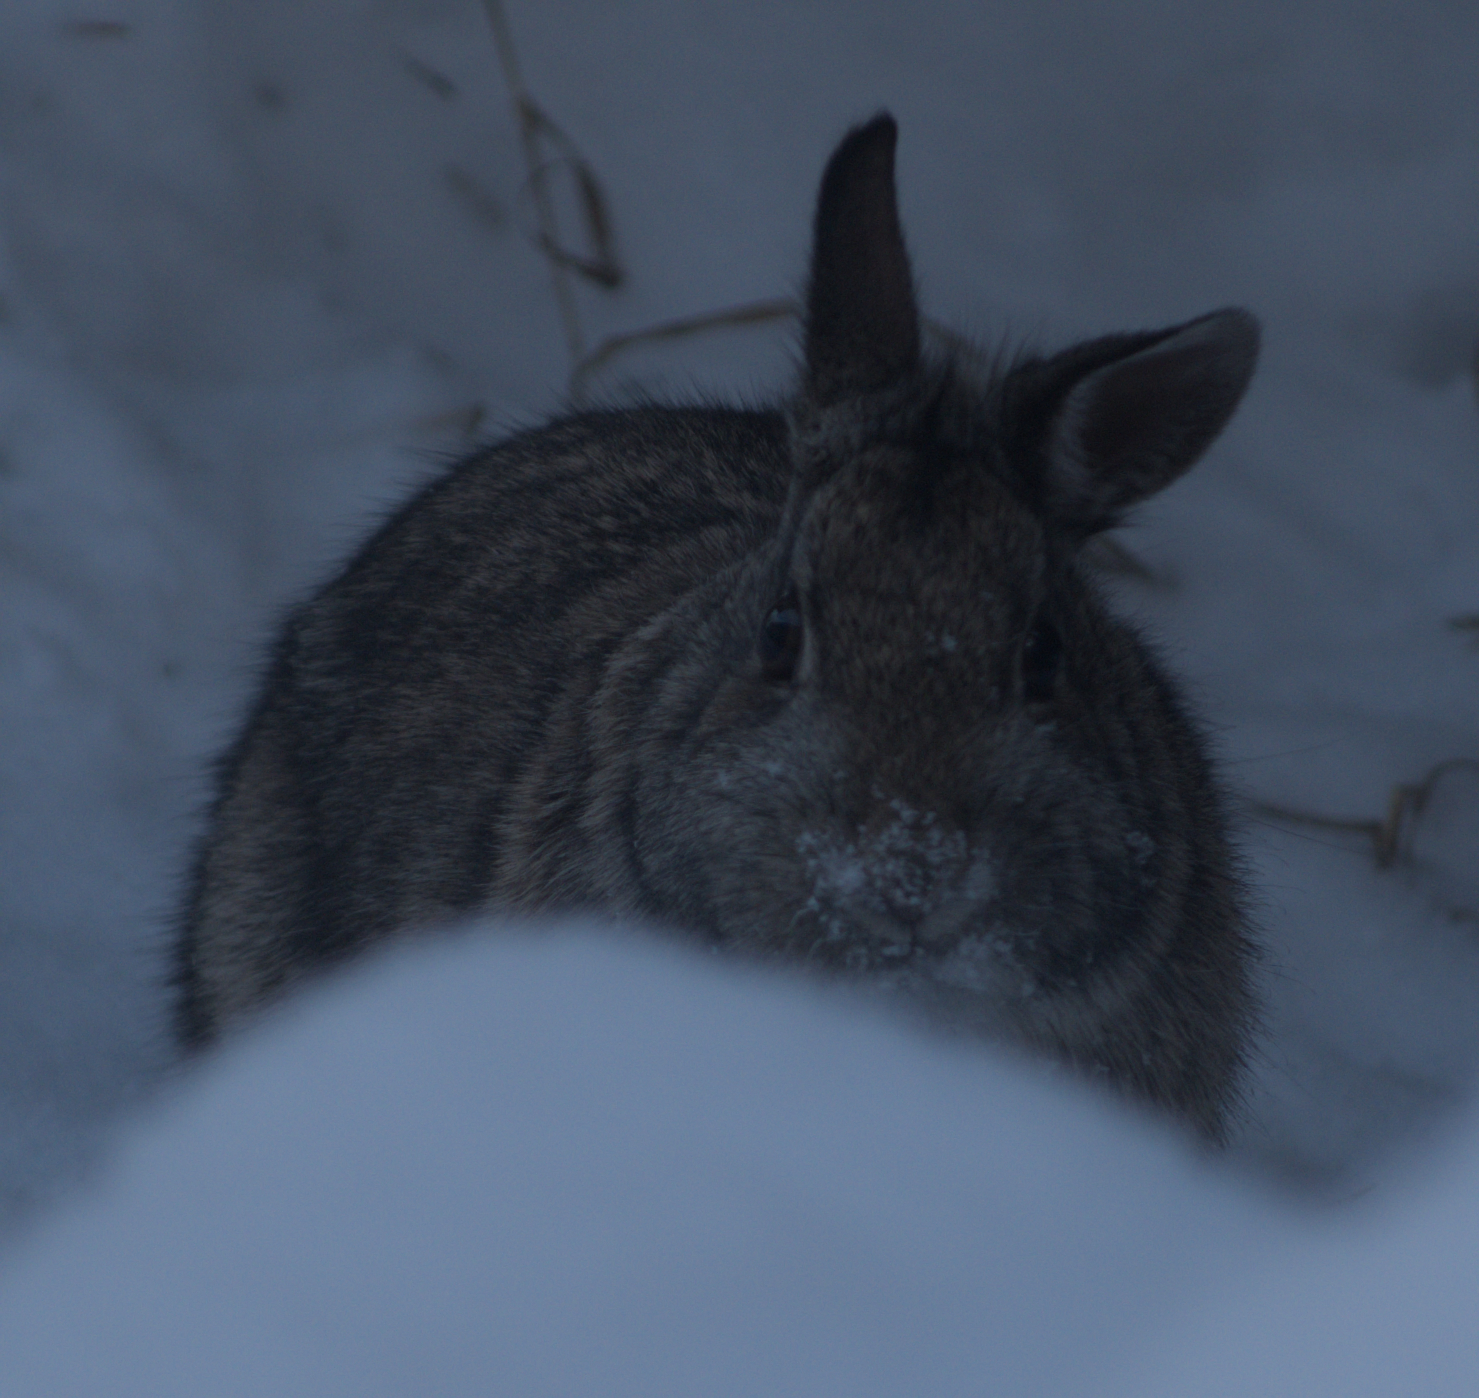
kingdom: Animalia
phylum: Chordata
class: Mammalia
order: Lagomorpha
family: Leporidae
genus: Sylvilagus
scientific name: Sylvilagus floridanus
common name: Eastern cottontail
